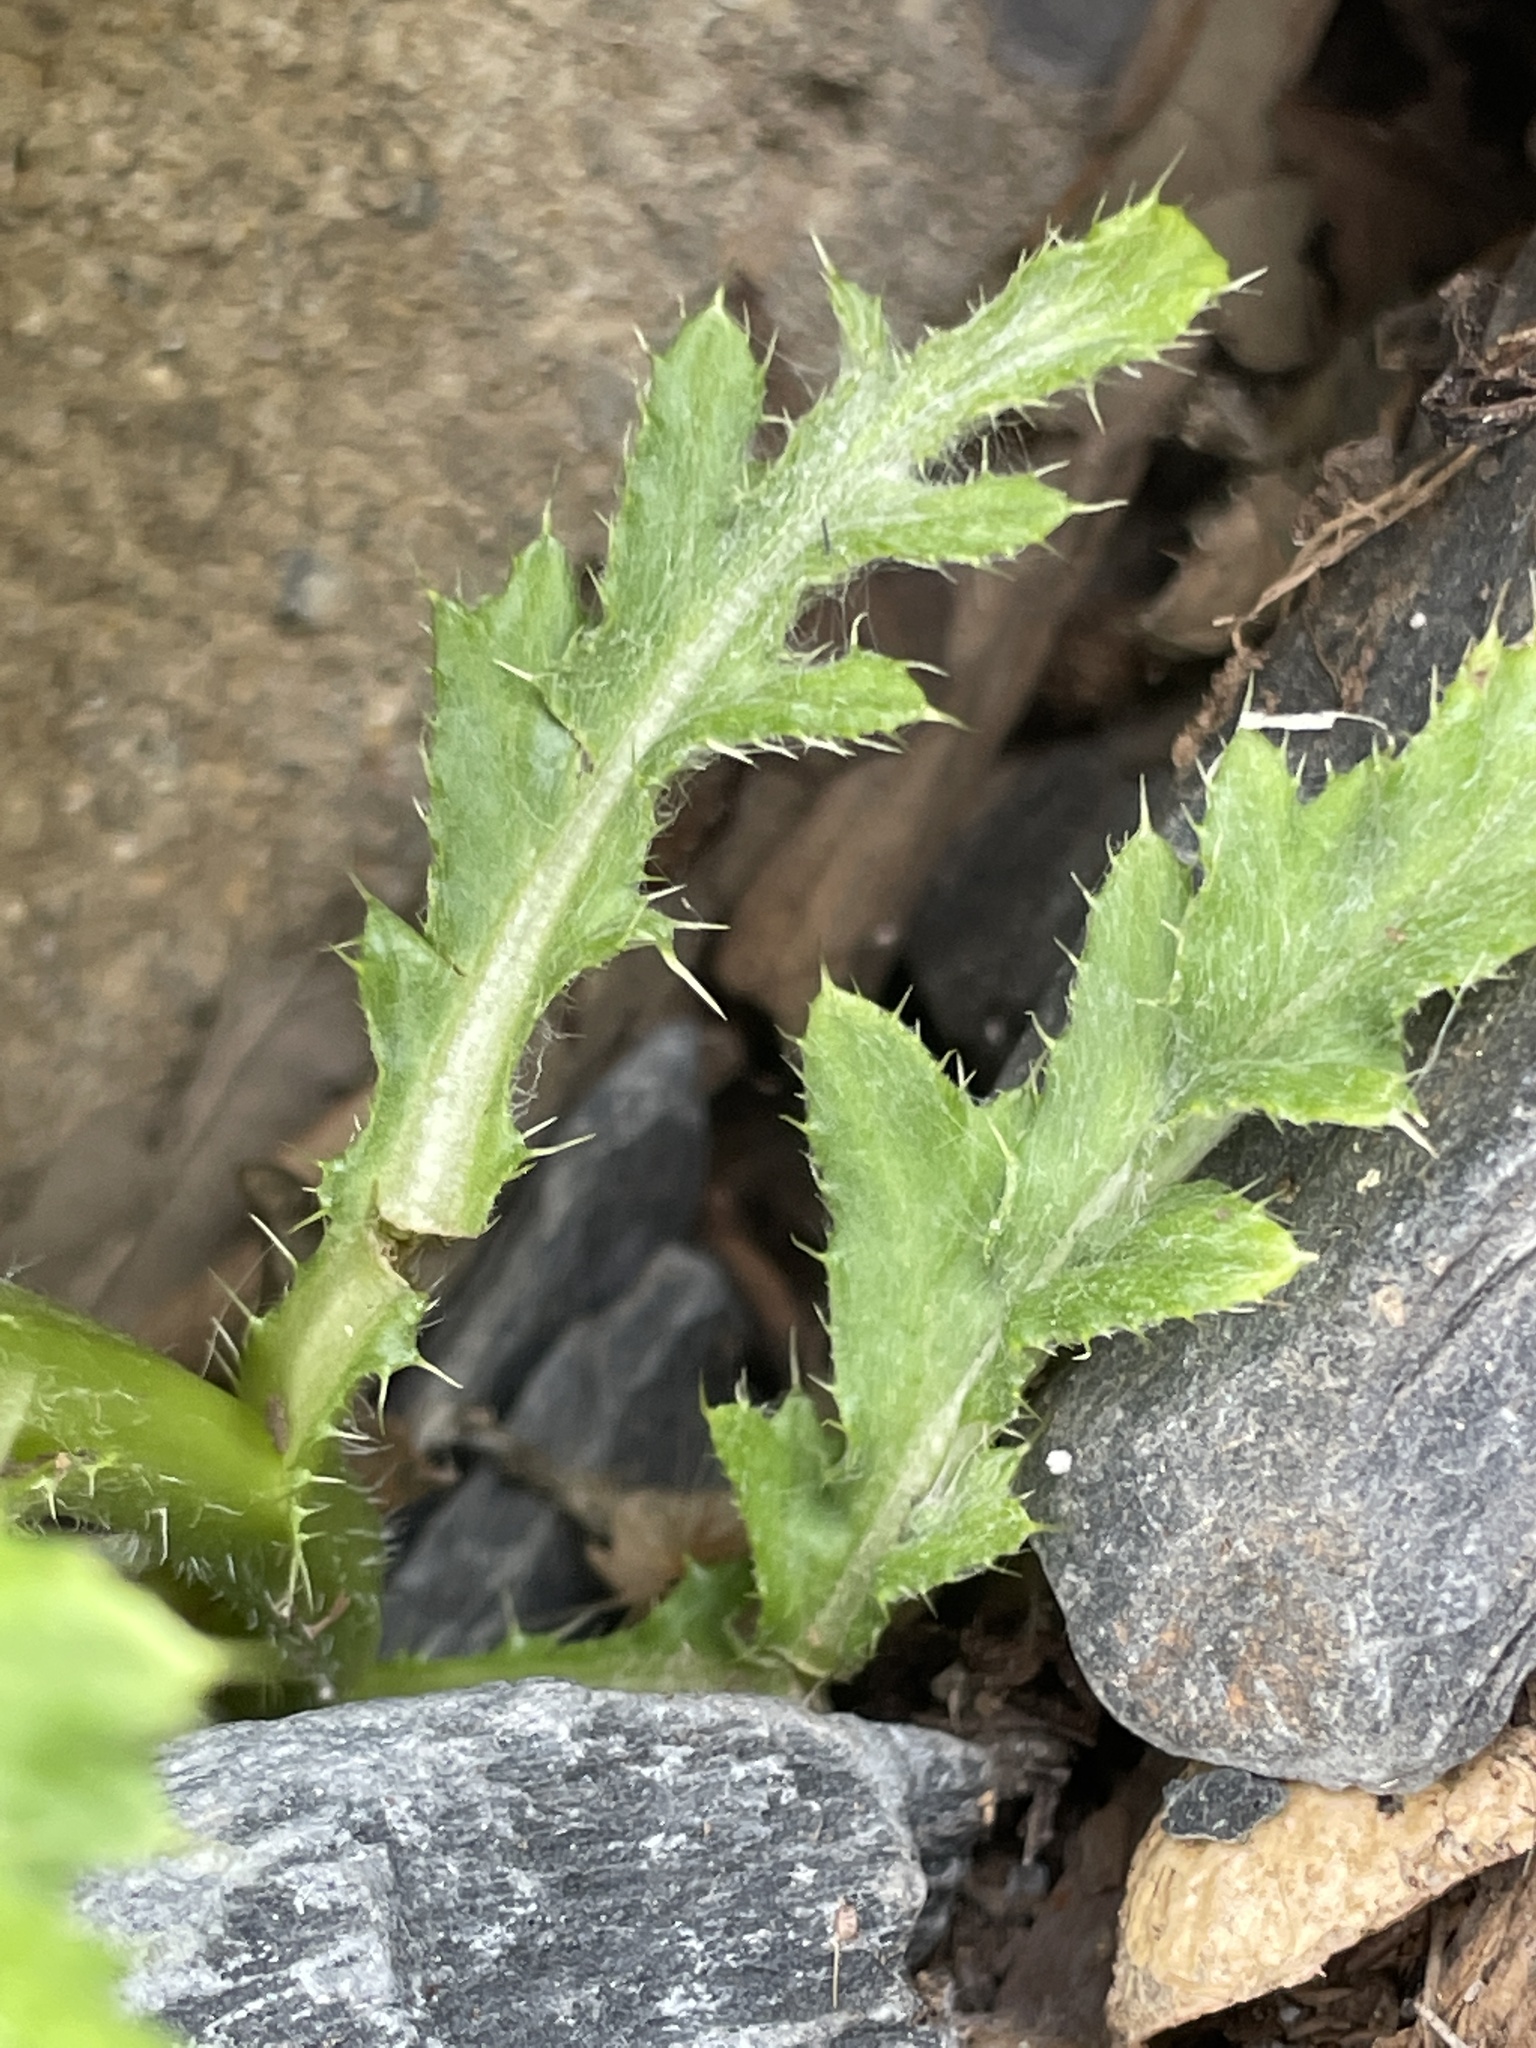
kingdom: Plantae
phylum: Tracheophyta
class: Magnoliopsida
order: Asterales
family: Asteraceae
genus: Cirsium
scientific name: Cirsium arvense
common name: Creeping thistle
